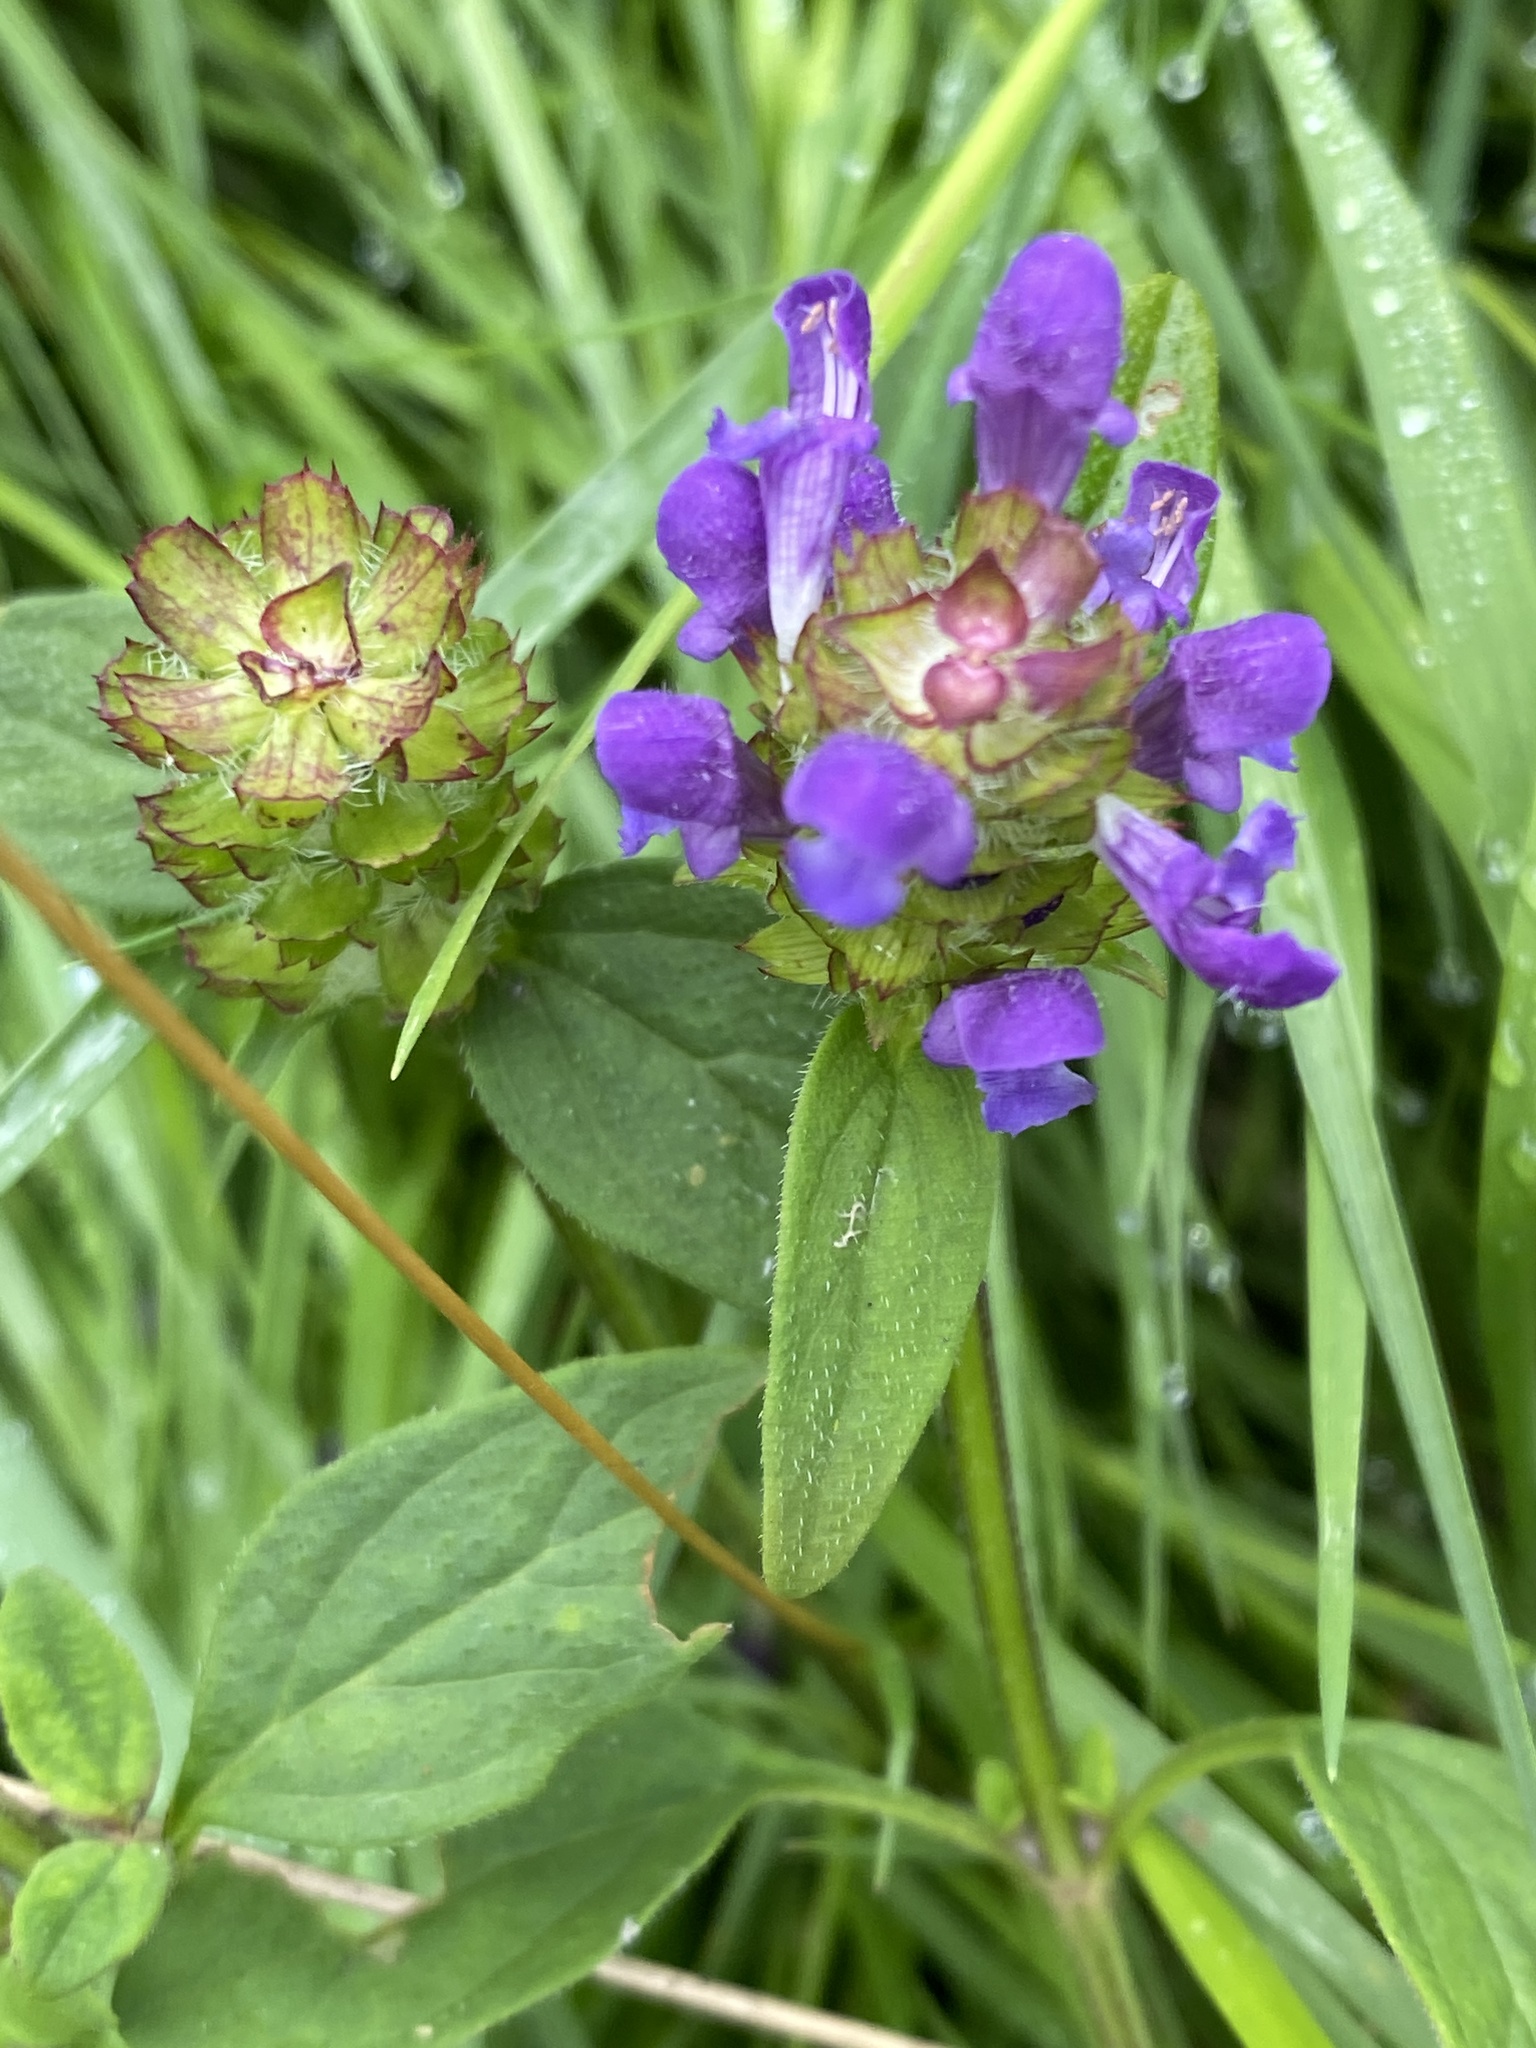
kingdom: Plantae
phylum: Tracheophyta
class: Magnoliopsida
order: Lamiales
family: Lamiaceae
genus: Prunella
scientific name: Prunella vulgaris
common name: Heal-all
